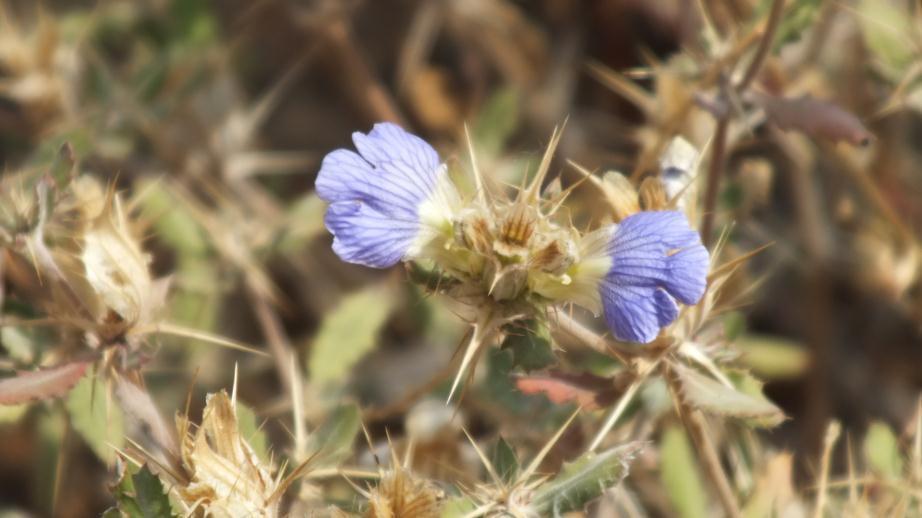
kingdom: Plantae
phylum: Tracheophyta
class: Magnoliopsida
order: Lamiales
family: Acanthaceae
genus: Blepharis
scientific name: Blepharis subvolubilis
